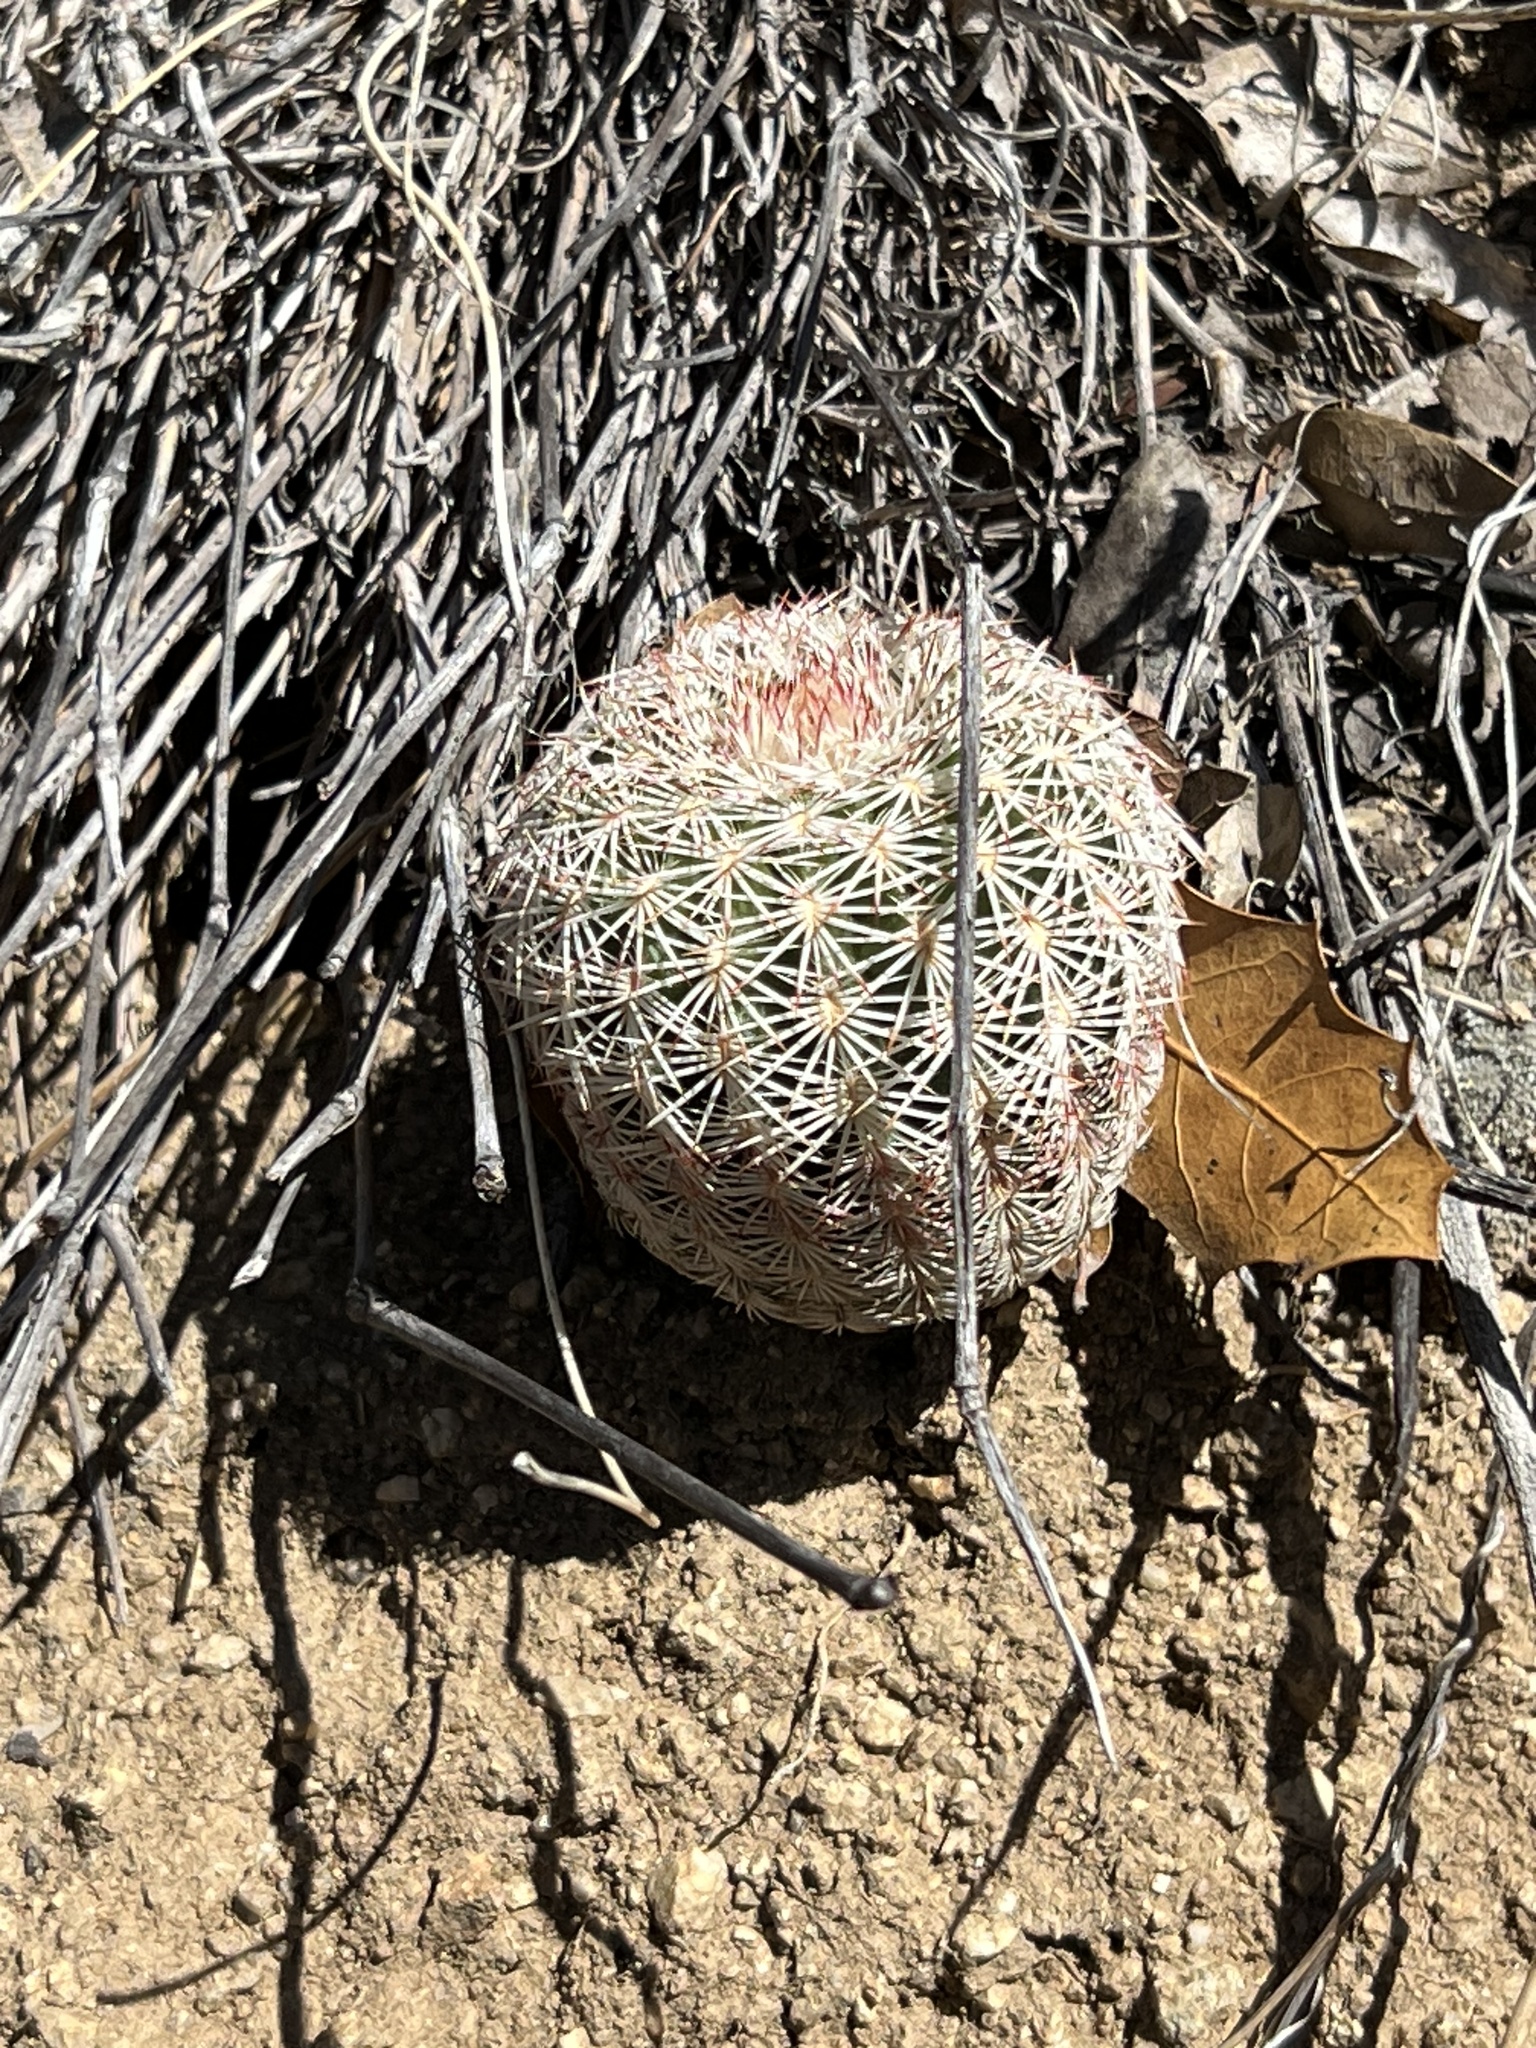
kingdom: Plantae
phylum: Tracheophyta
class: Magnoliopsida
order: Caryophyllales
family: Cactaceae
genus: Echinocereus
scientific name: Echinocereus rigidissimus
